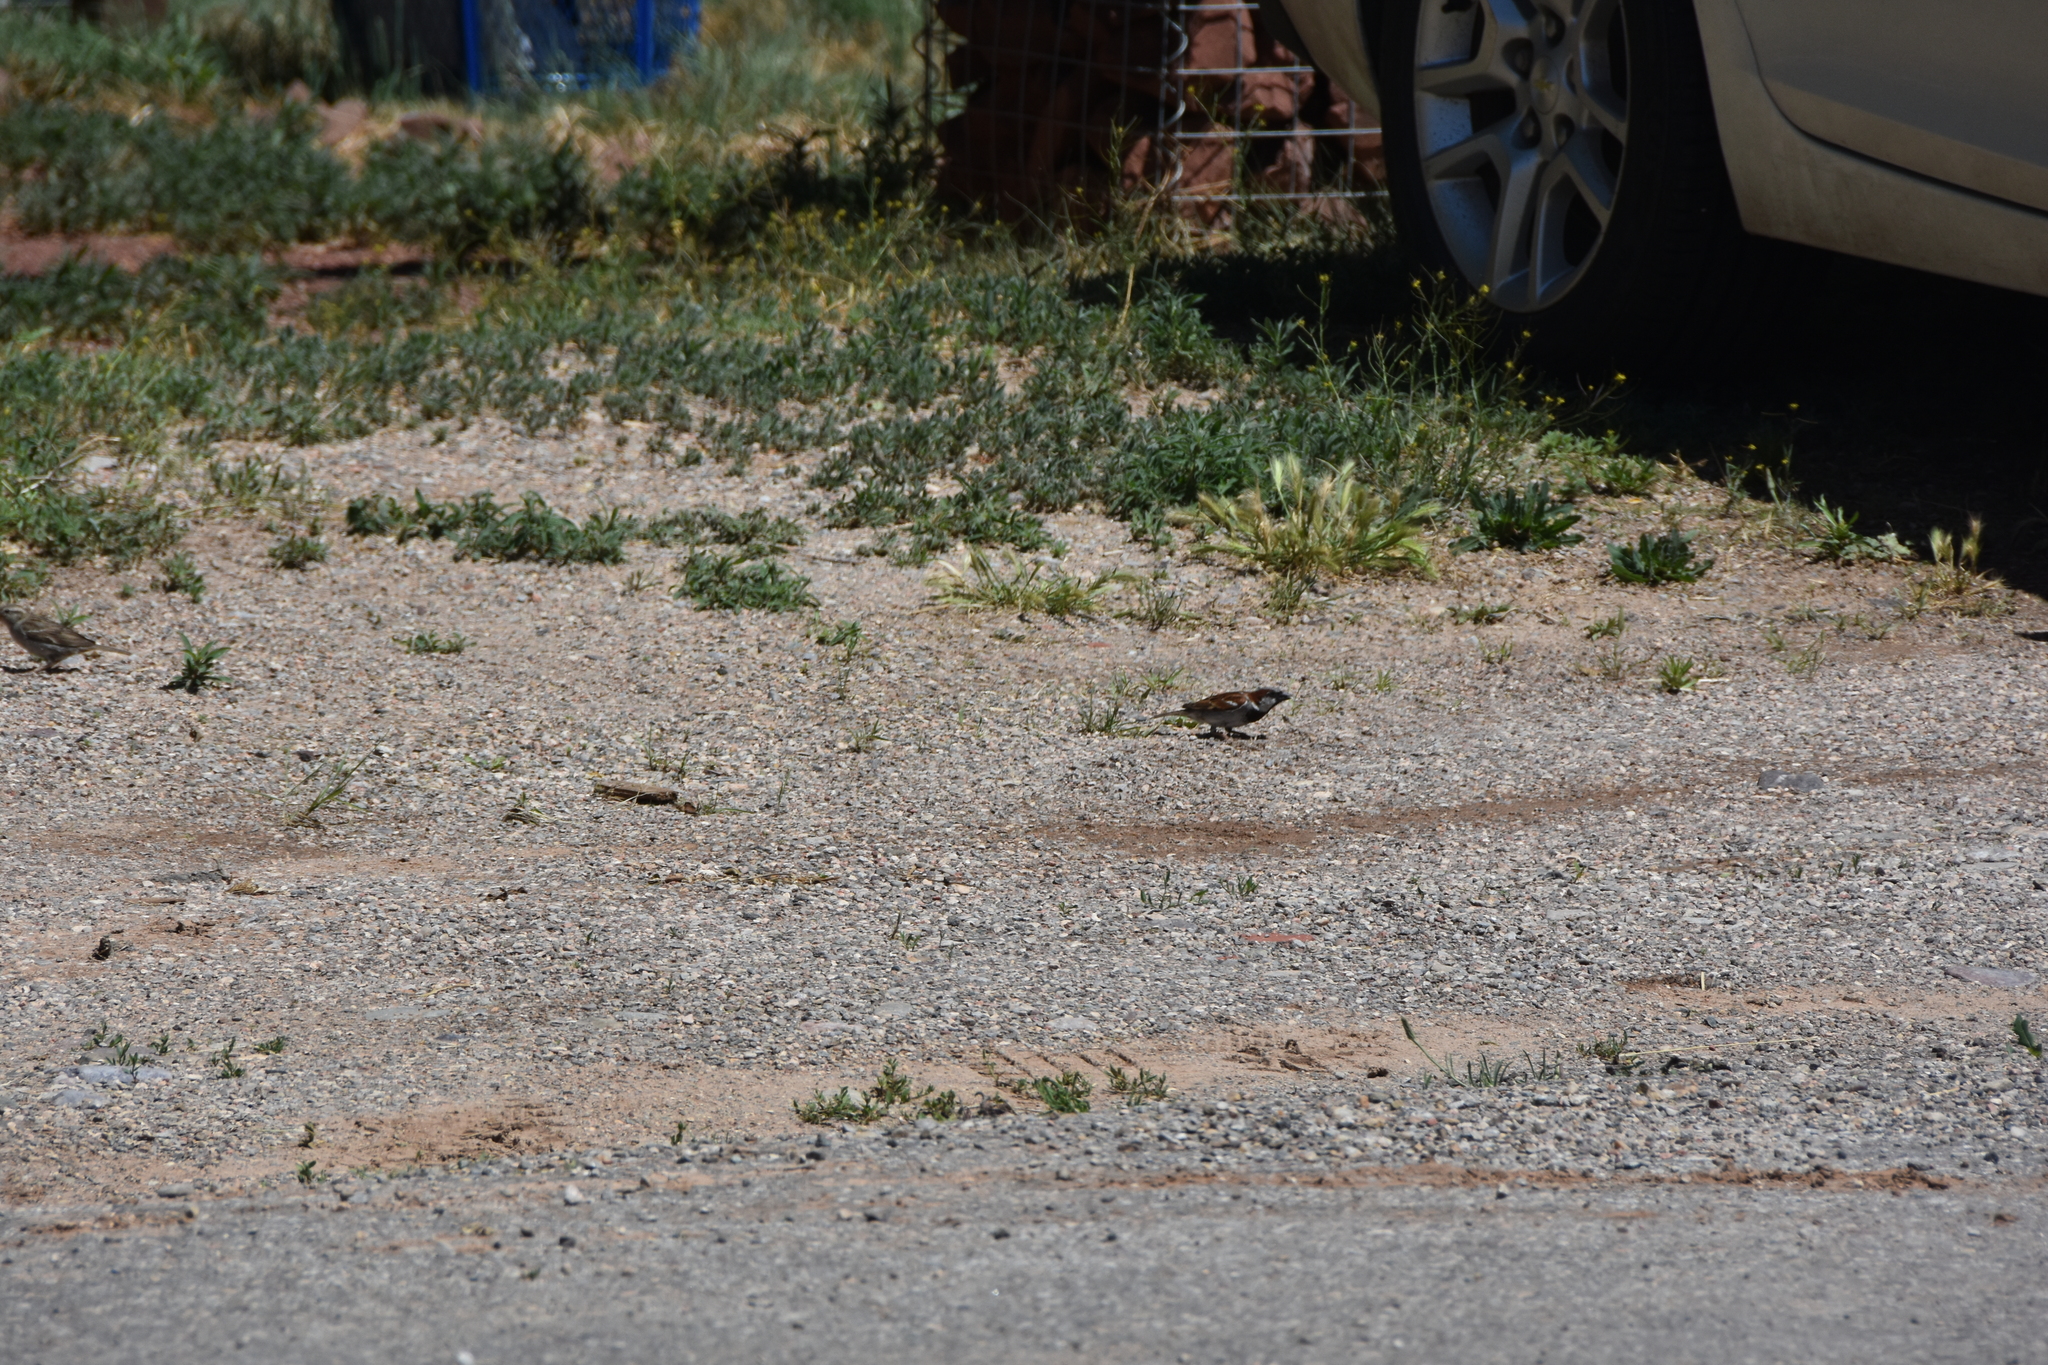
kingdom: Animalia
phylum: Chordata
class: Aves
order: Passeriformes
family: Passeridae
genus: Passer
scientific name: Passer domesticus
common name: House sparrow
